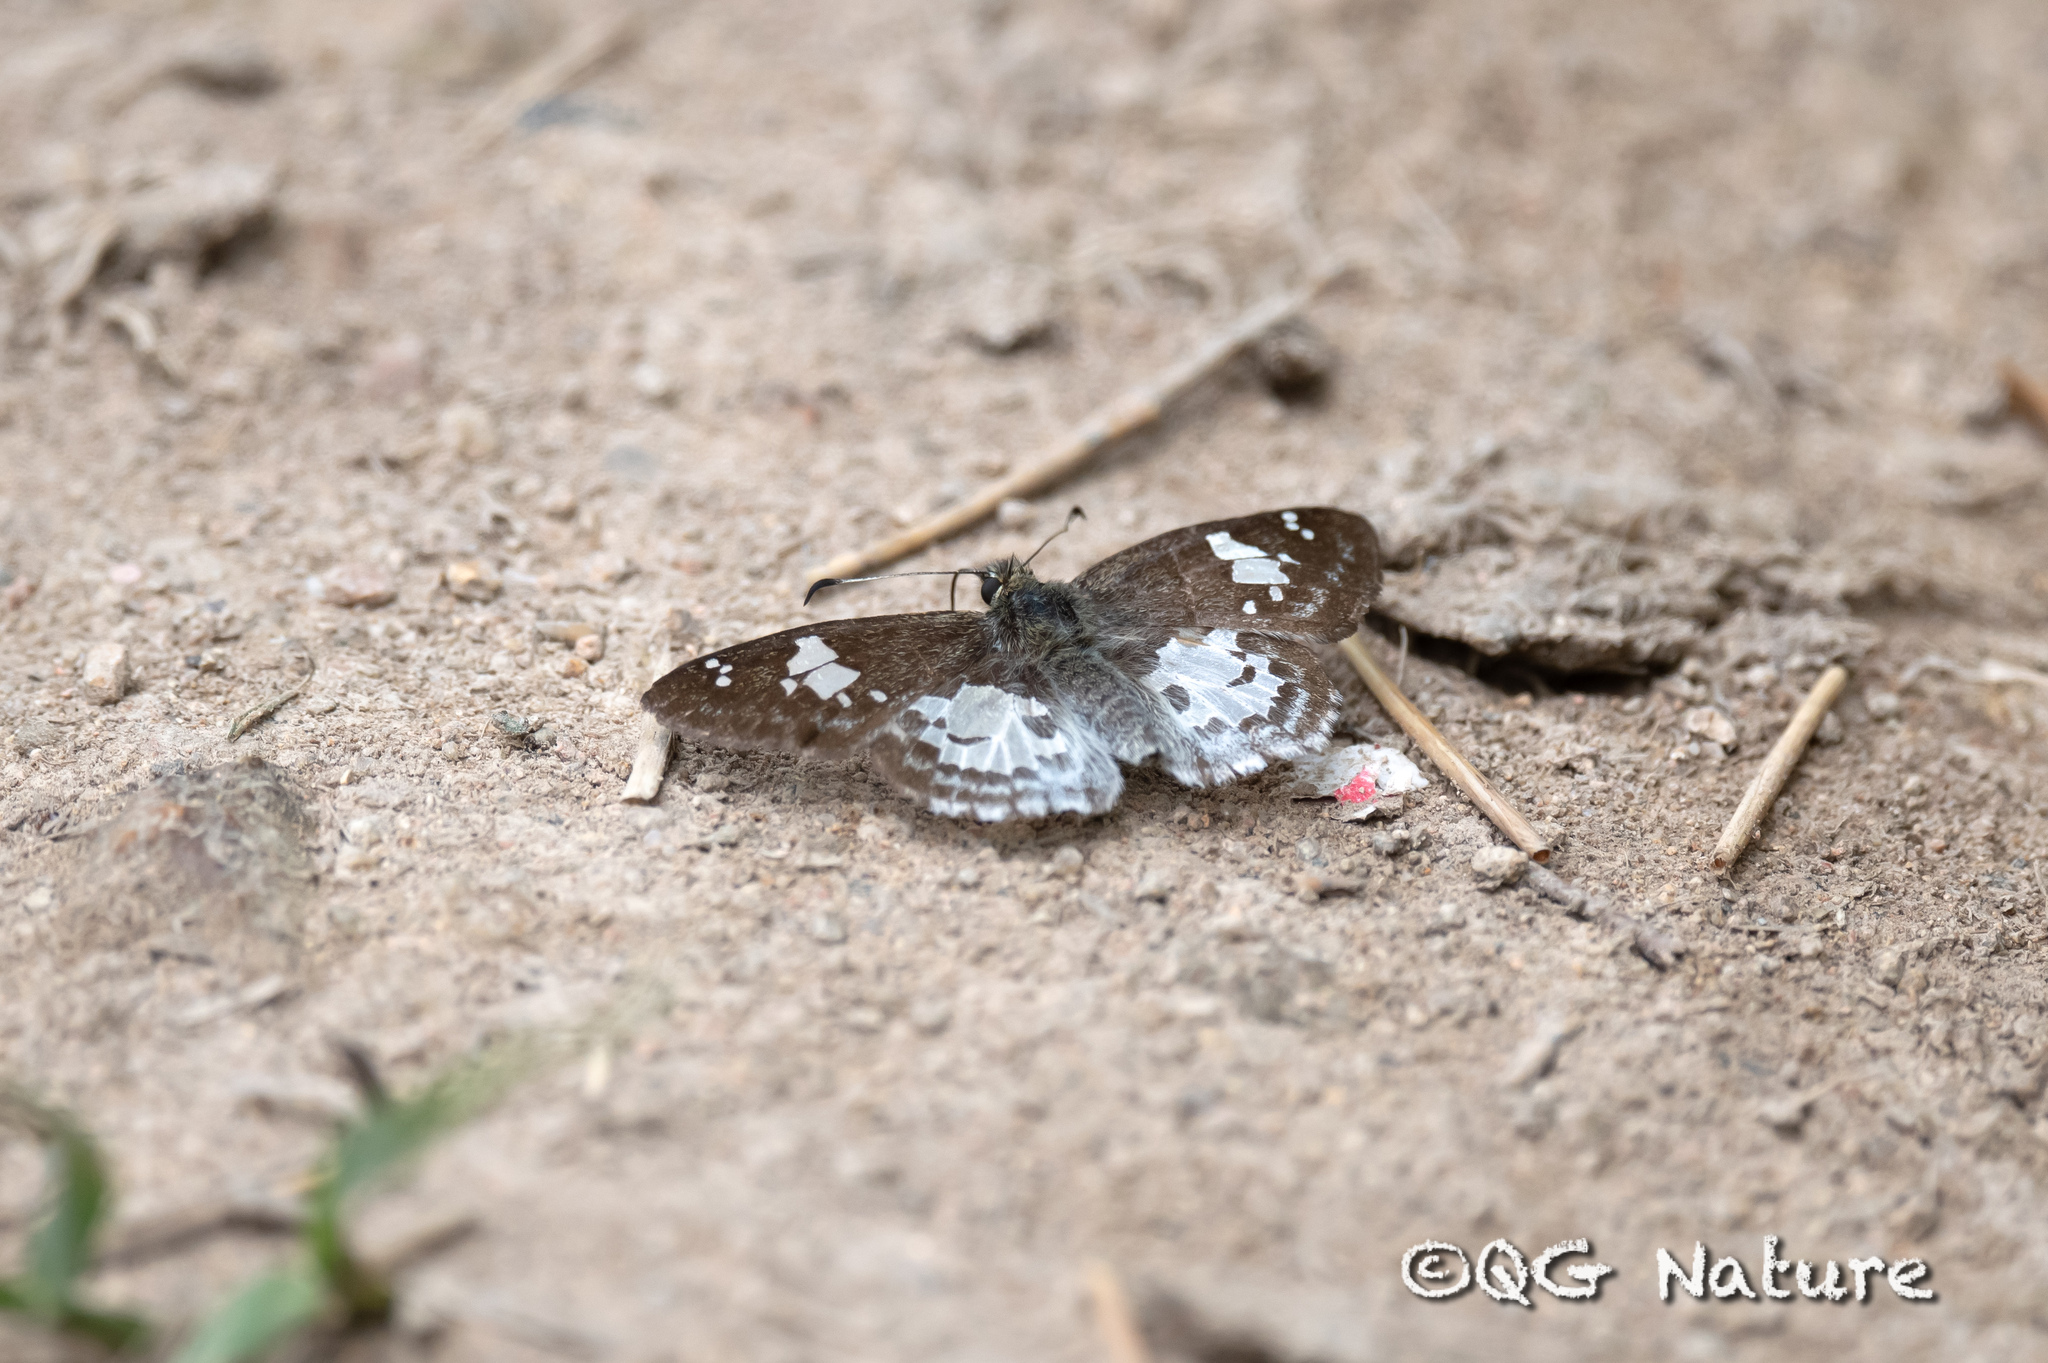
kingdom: Animalia
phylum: Arthropoda
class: Insecta
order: Lepidoptera
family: Hesperiidae
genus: Cogia
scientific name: Cogia sheila
